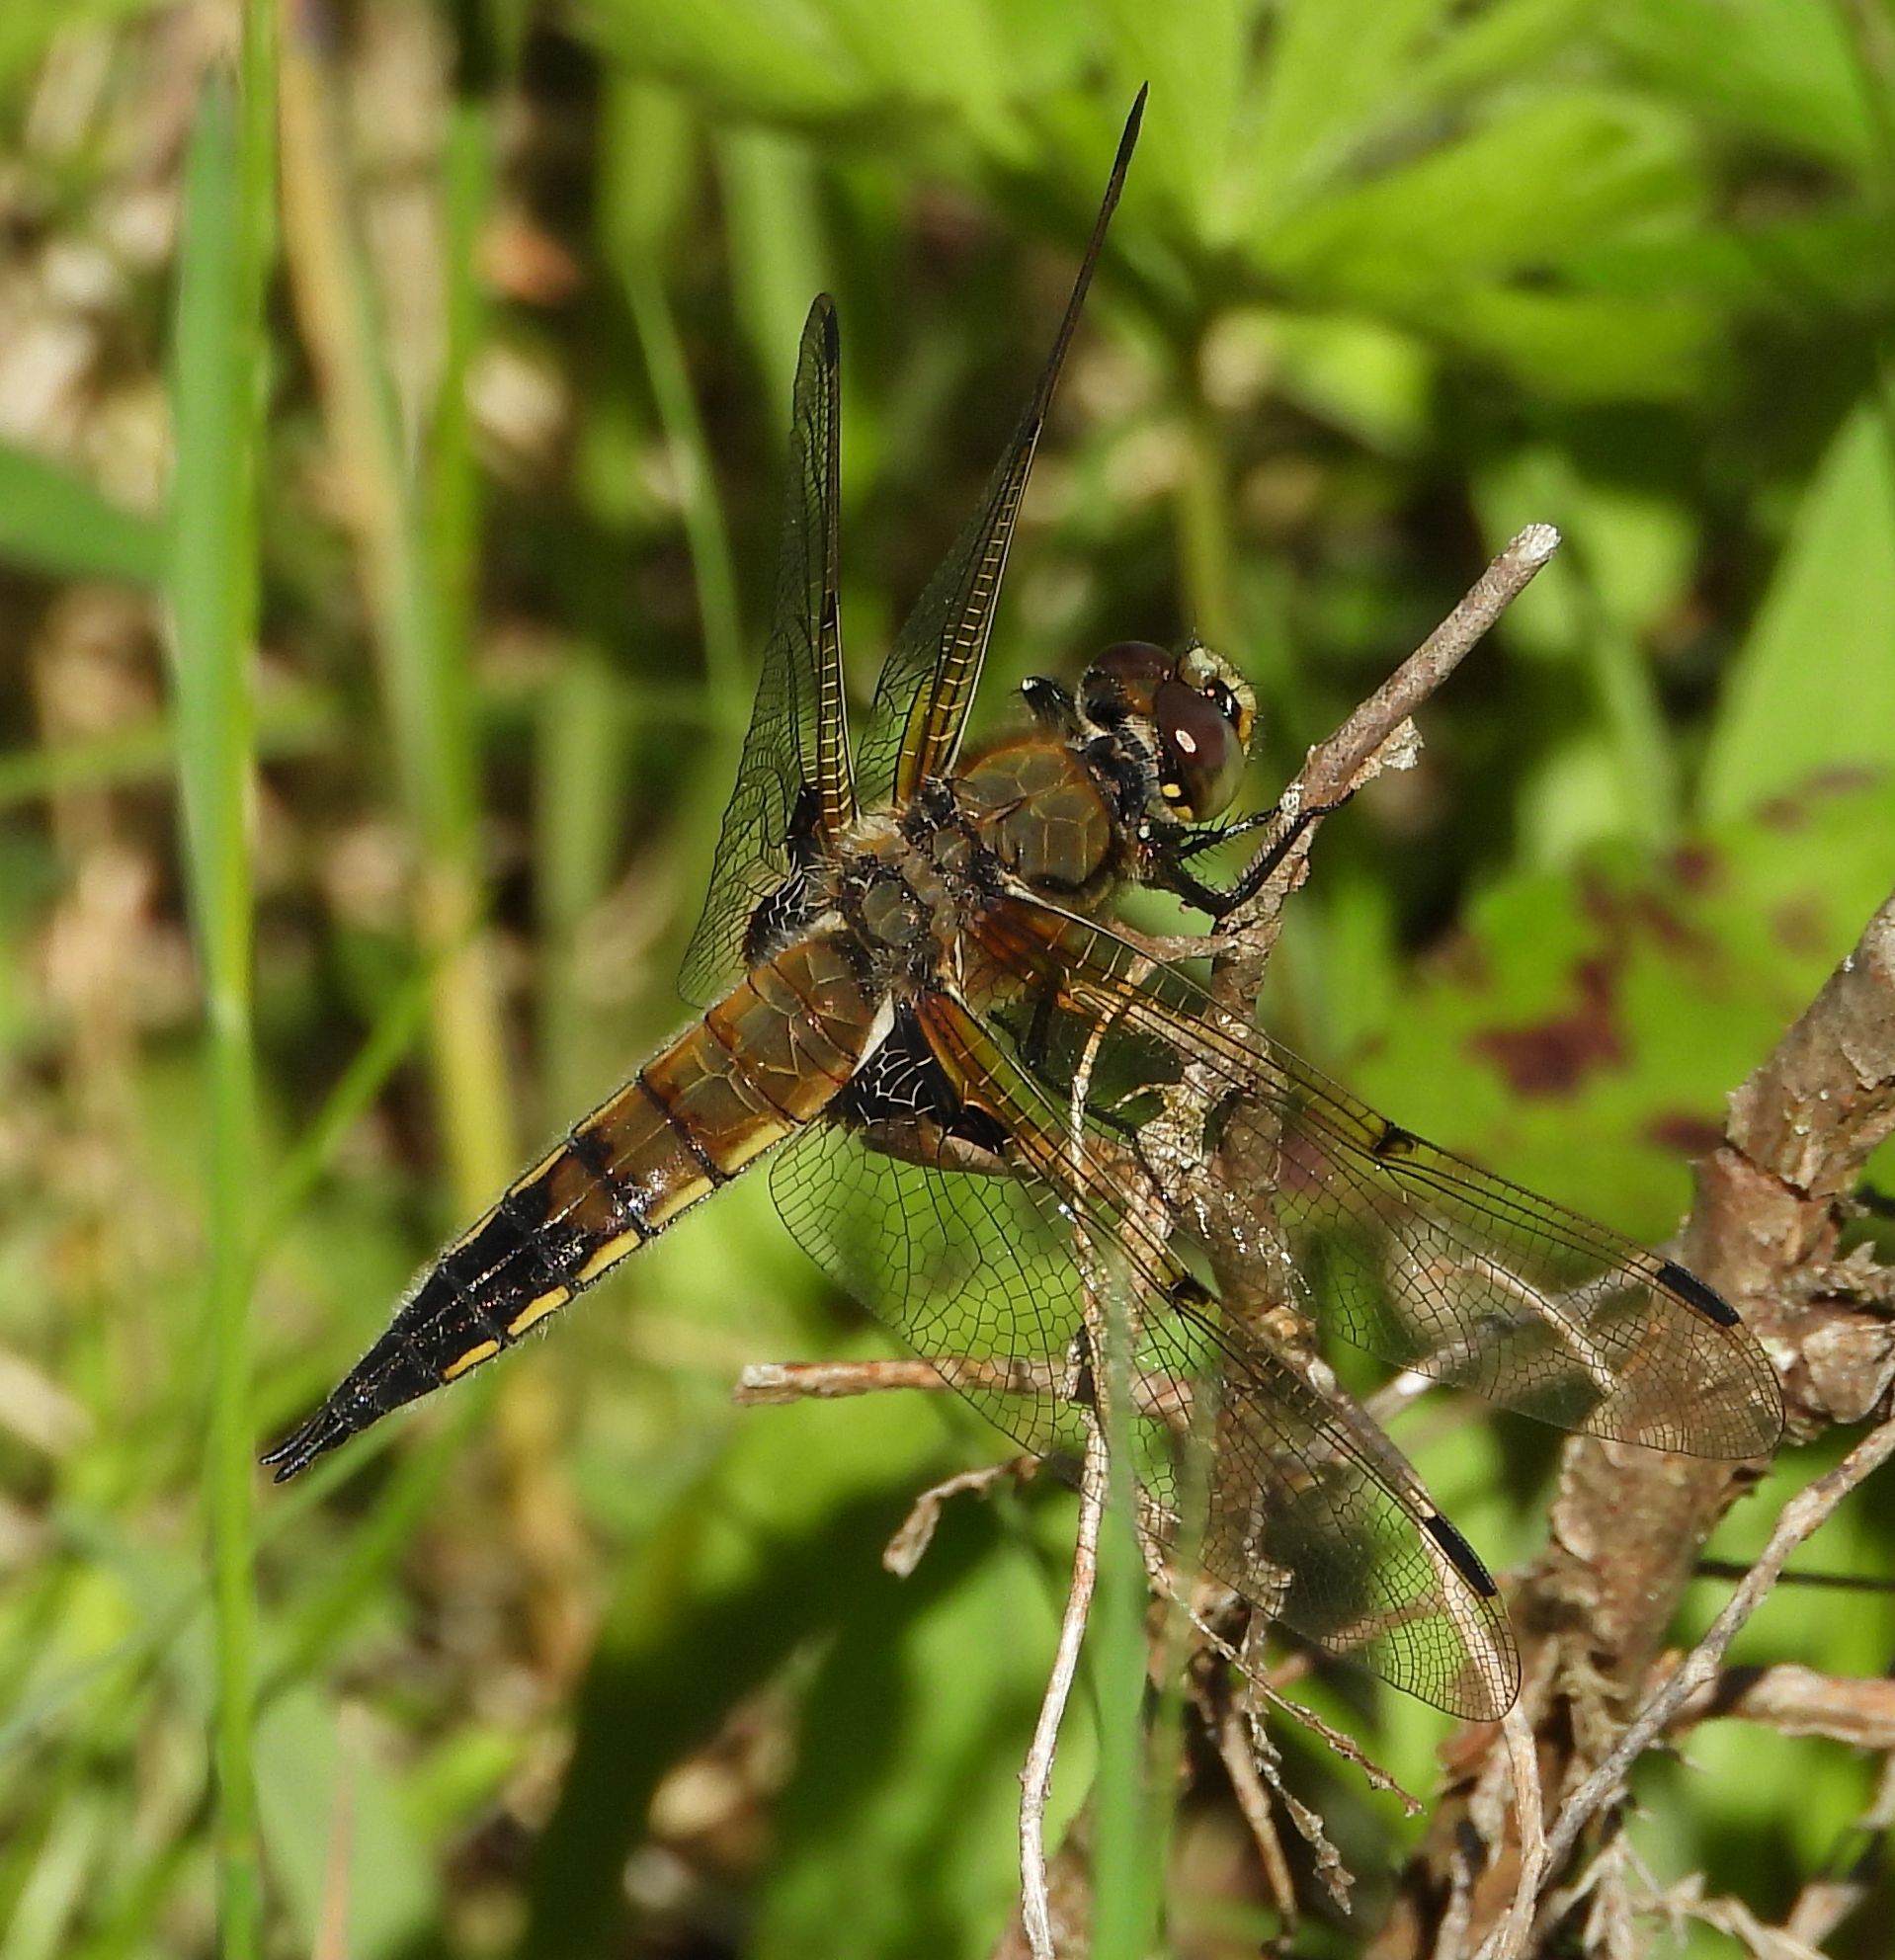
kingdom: Animalia
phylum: Arthropoda
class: Insecta
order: Odonata
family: Libellulidae
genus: Libellula
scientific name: Libellula quadrimaculata
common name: Four-spotted chaser
